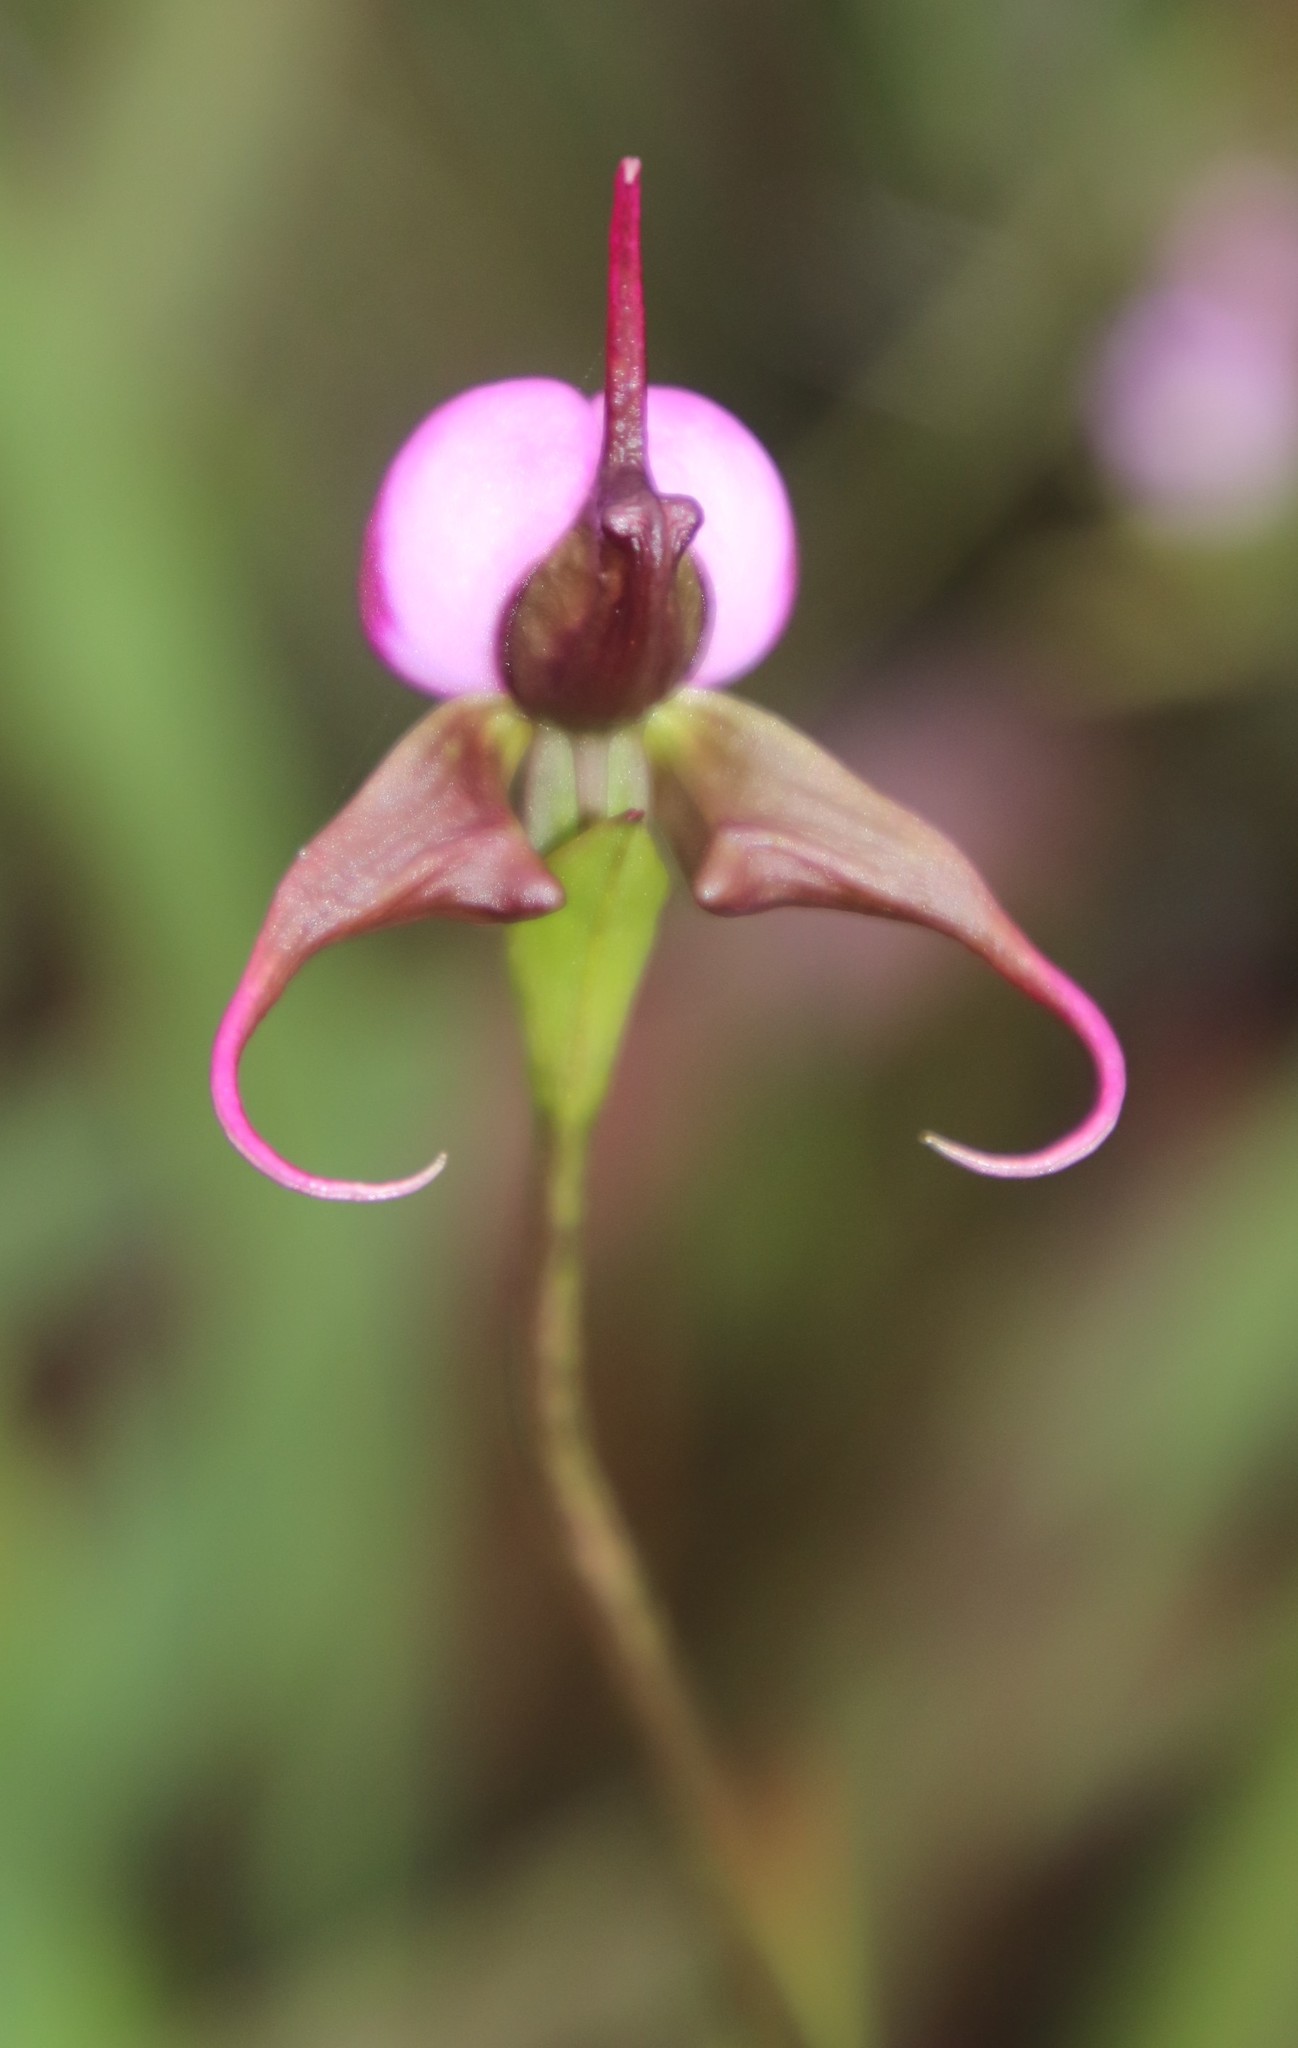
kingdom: Plantae
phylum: Tracheophyta
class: Liliopsida
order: Asparagales
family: Orchidaceae
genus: Disperis
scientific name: Disperis capensis
